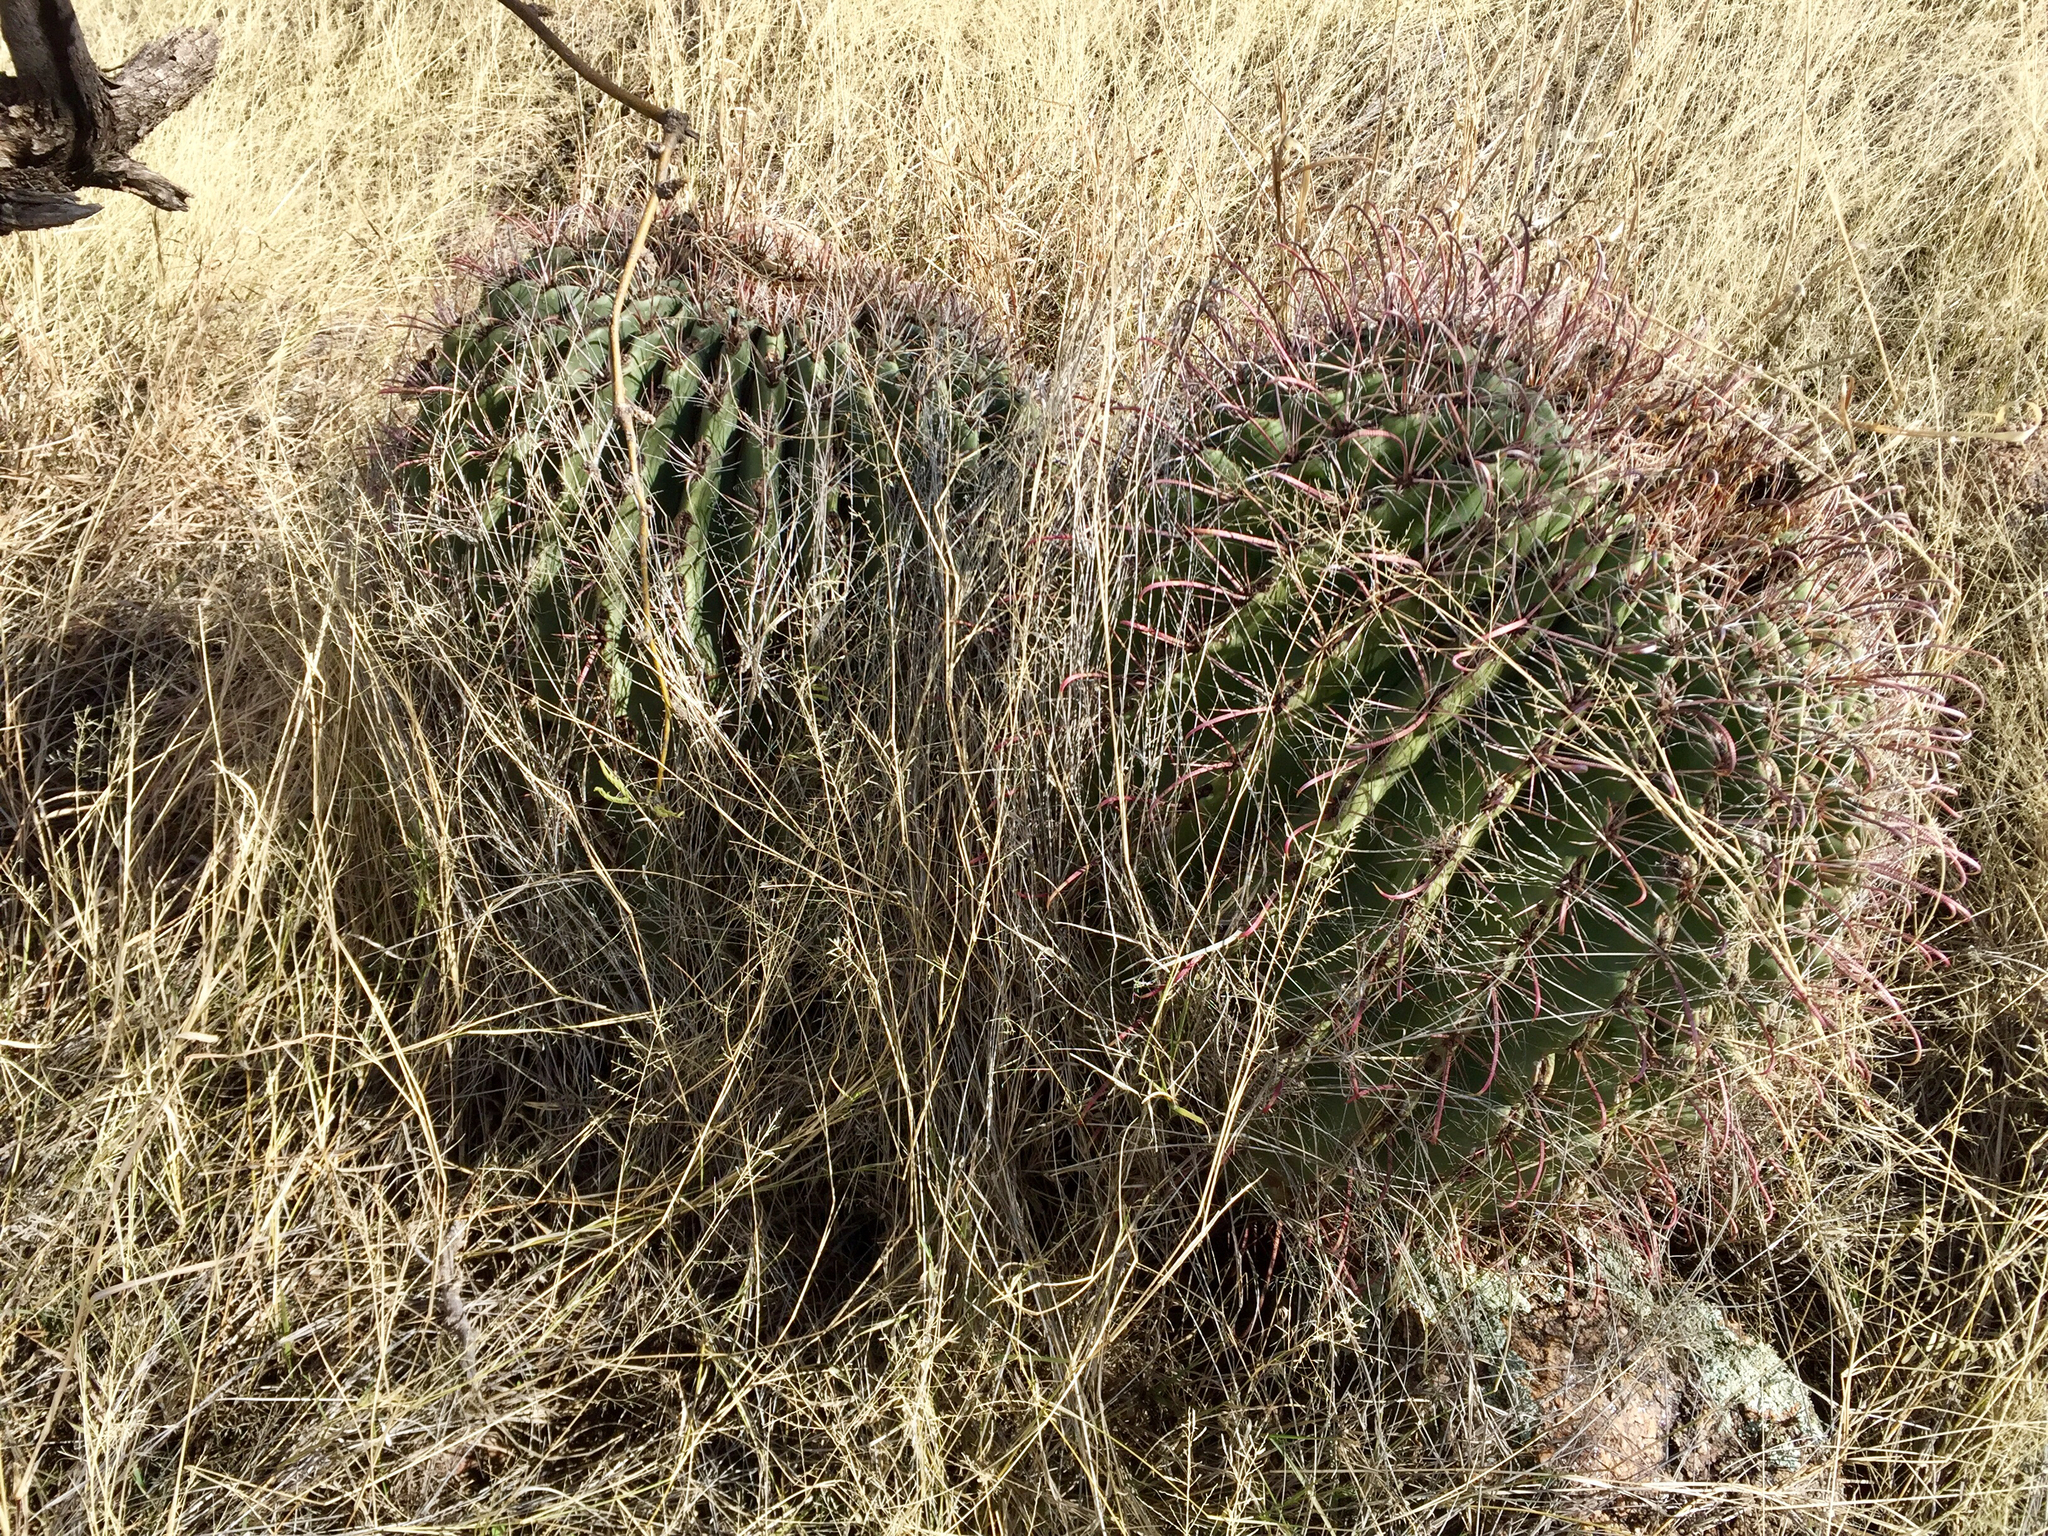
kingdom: Plantae
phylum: Tracheophyta
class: Magnoliopsida
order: Caryophyllales
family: Cactaceae
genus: Ferocactus
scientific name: Ferocactus wislizeni
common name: Candy barrel cactus
